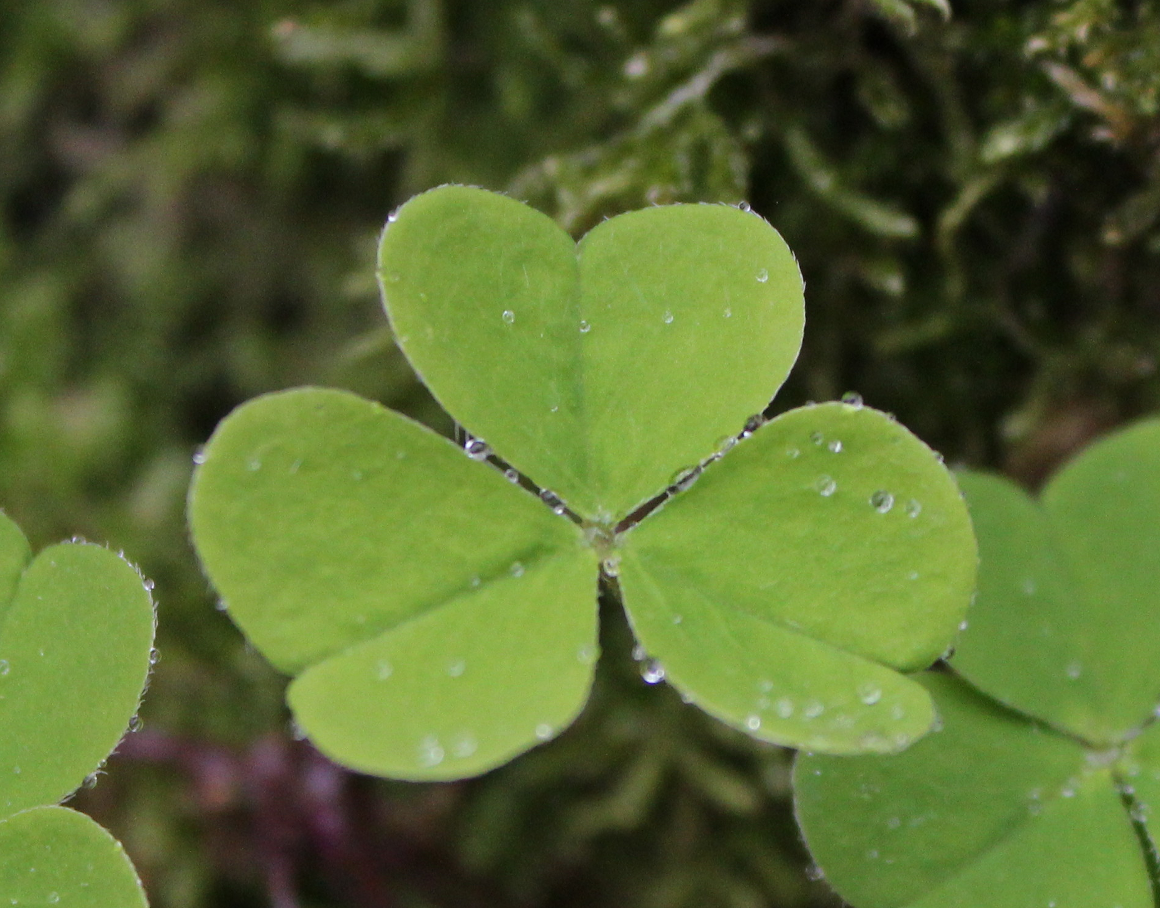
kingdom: Plantae
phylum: Tracheophyta
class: Magnoliopsida
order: Oxalidales
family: Oxalidaceae
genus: Oxalis
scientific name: Oxalis acetosella
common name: Wood-sorrel
